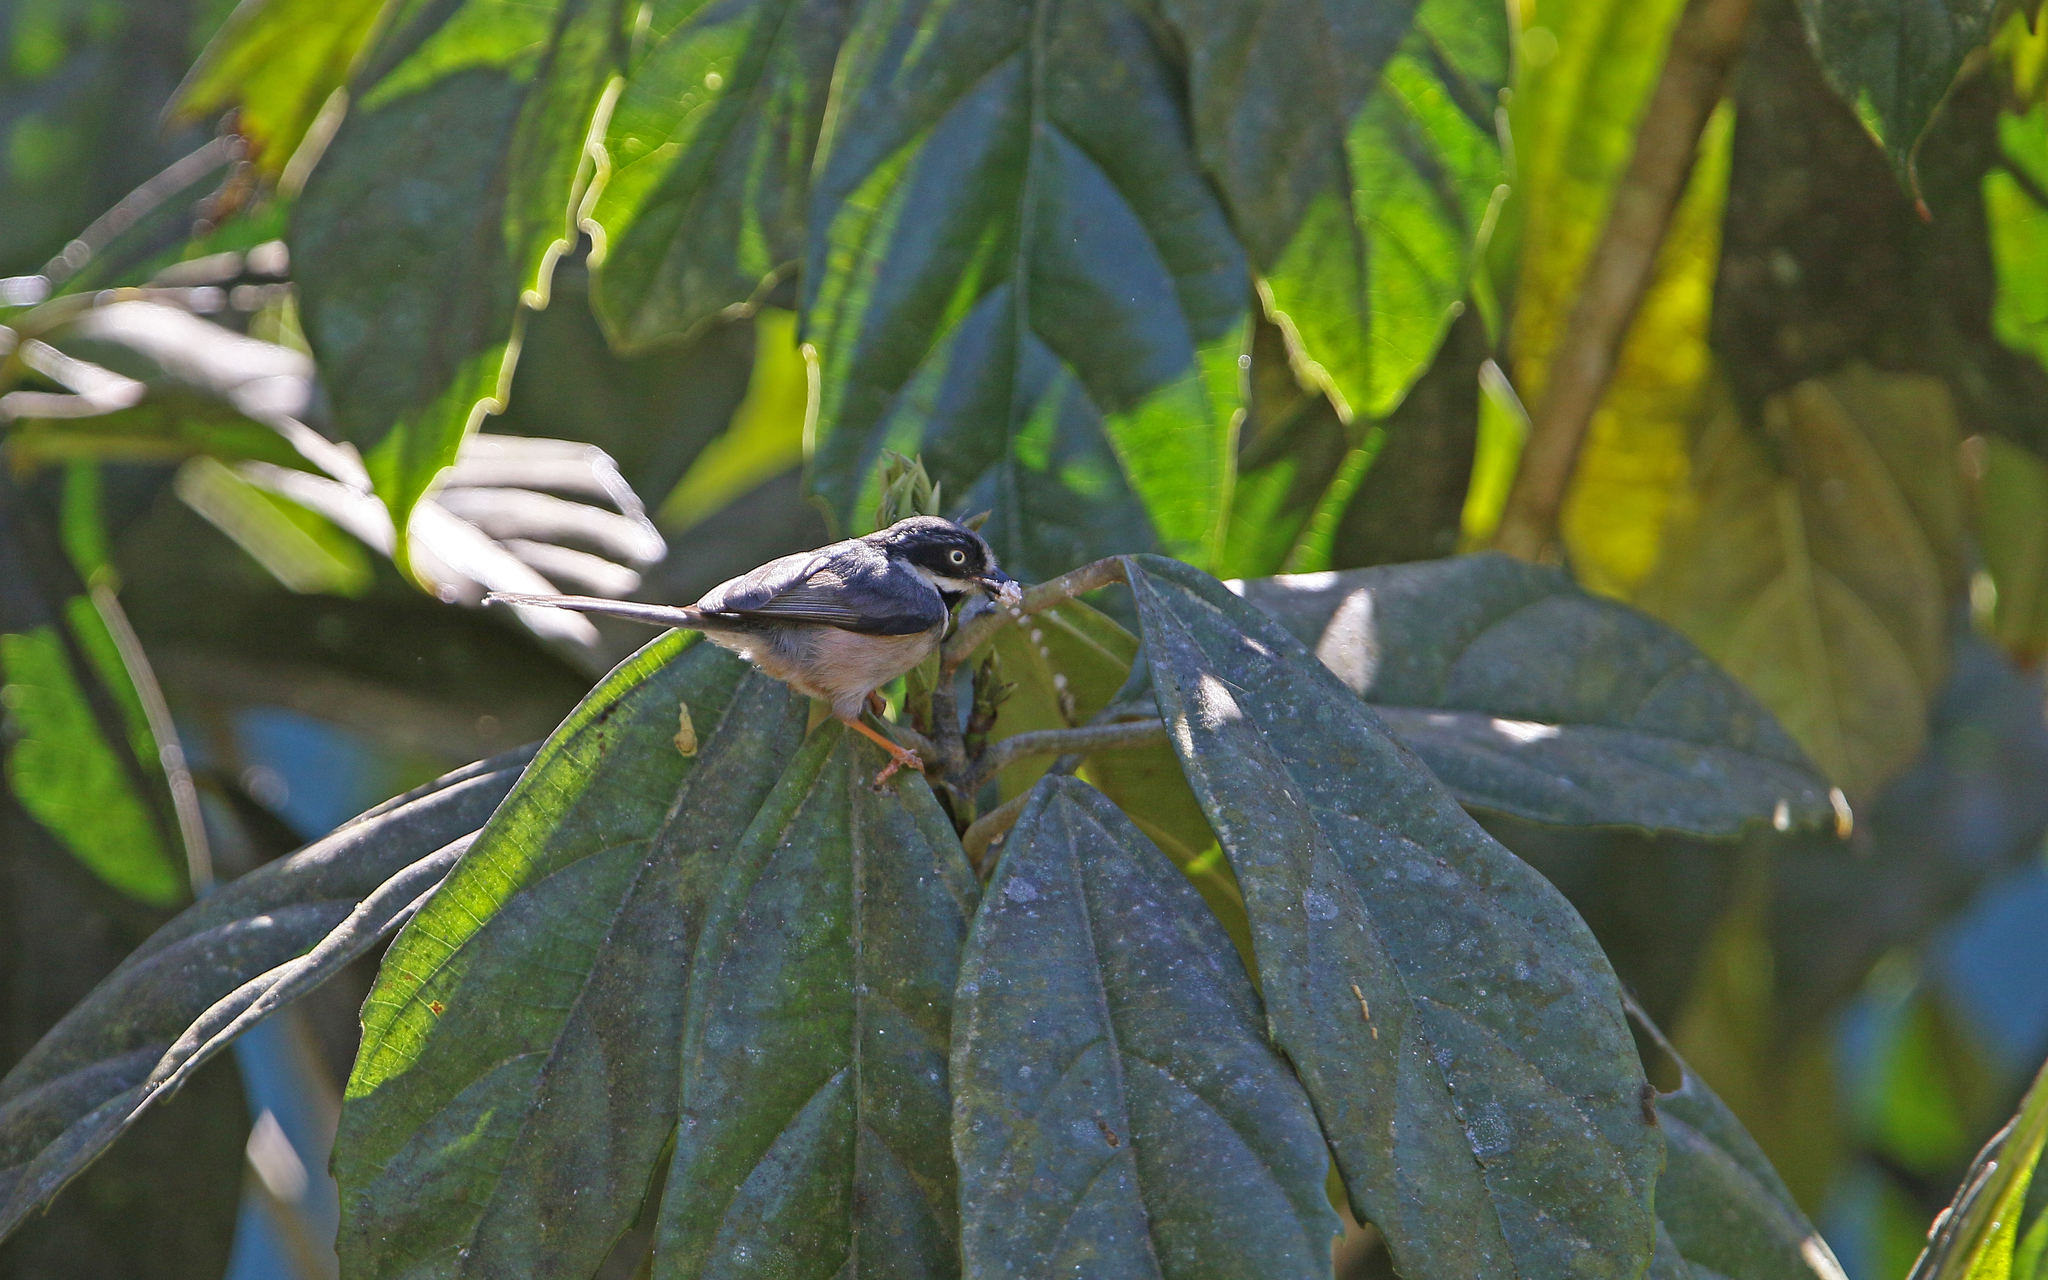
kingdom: Animalia
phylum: Chordata
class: Aves
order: Passeriformes
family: Aegithalidae
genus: Aegithalos
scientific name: Aegithalos concinnus
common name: Black-throated bushtit
